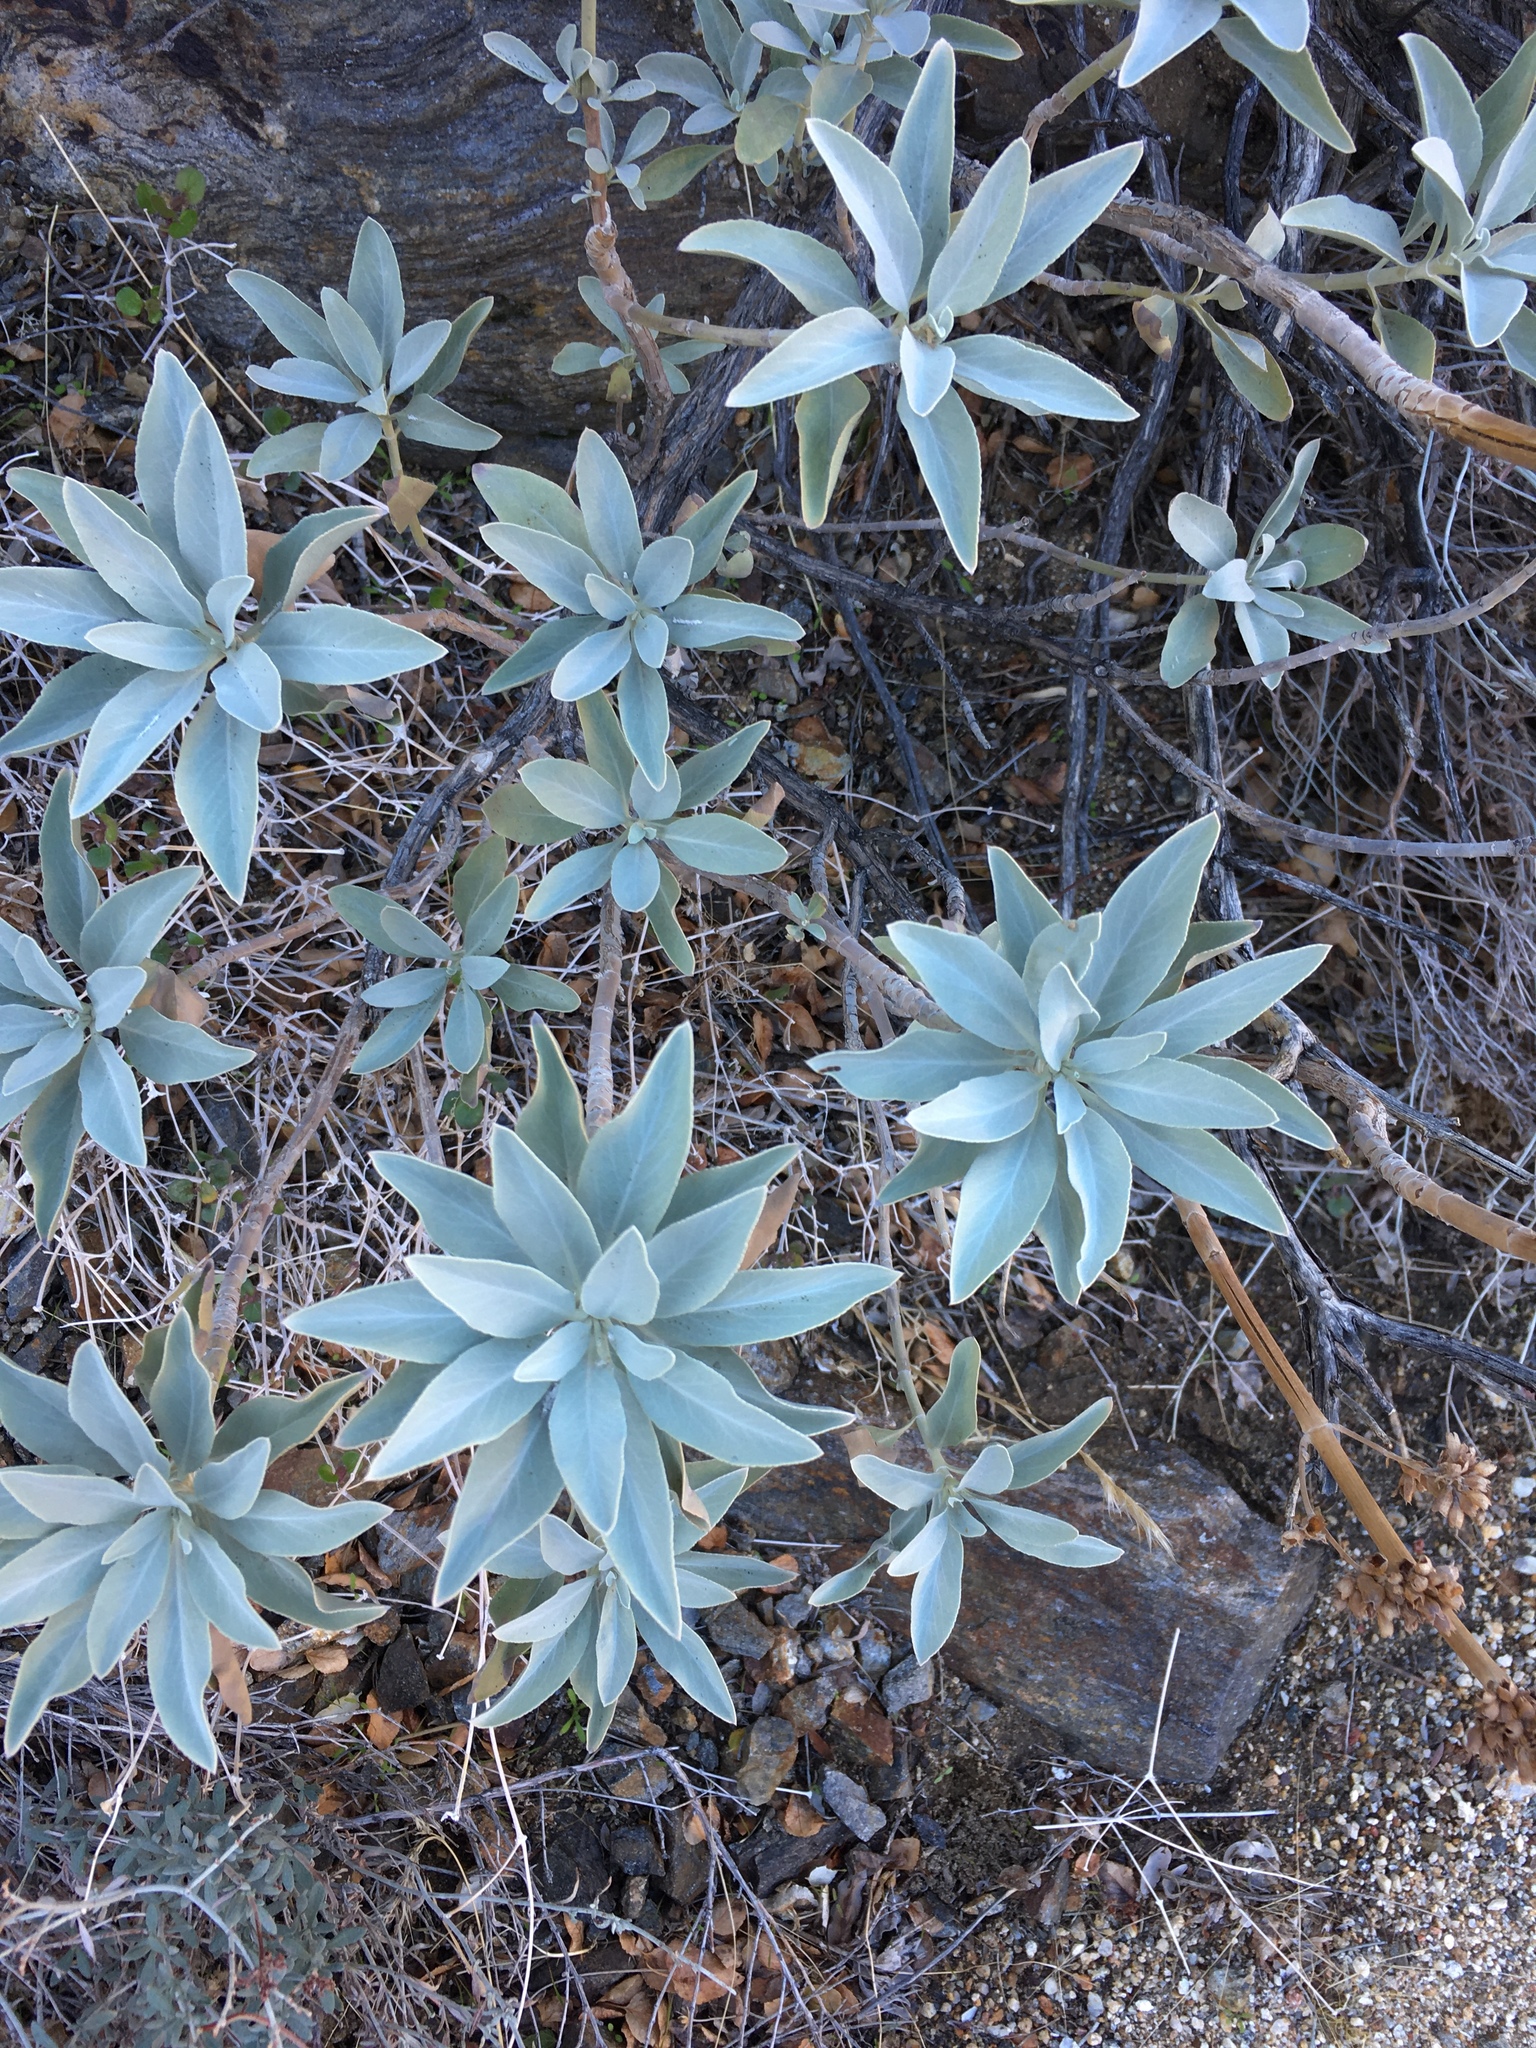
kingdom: Plantae
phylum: Tracheophyta
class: Magnoliopsida
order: Lamiales
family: Lamiaceae
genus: Salvia
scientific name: Salvia apiana
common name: White sage
